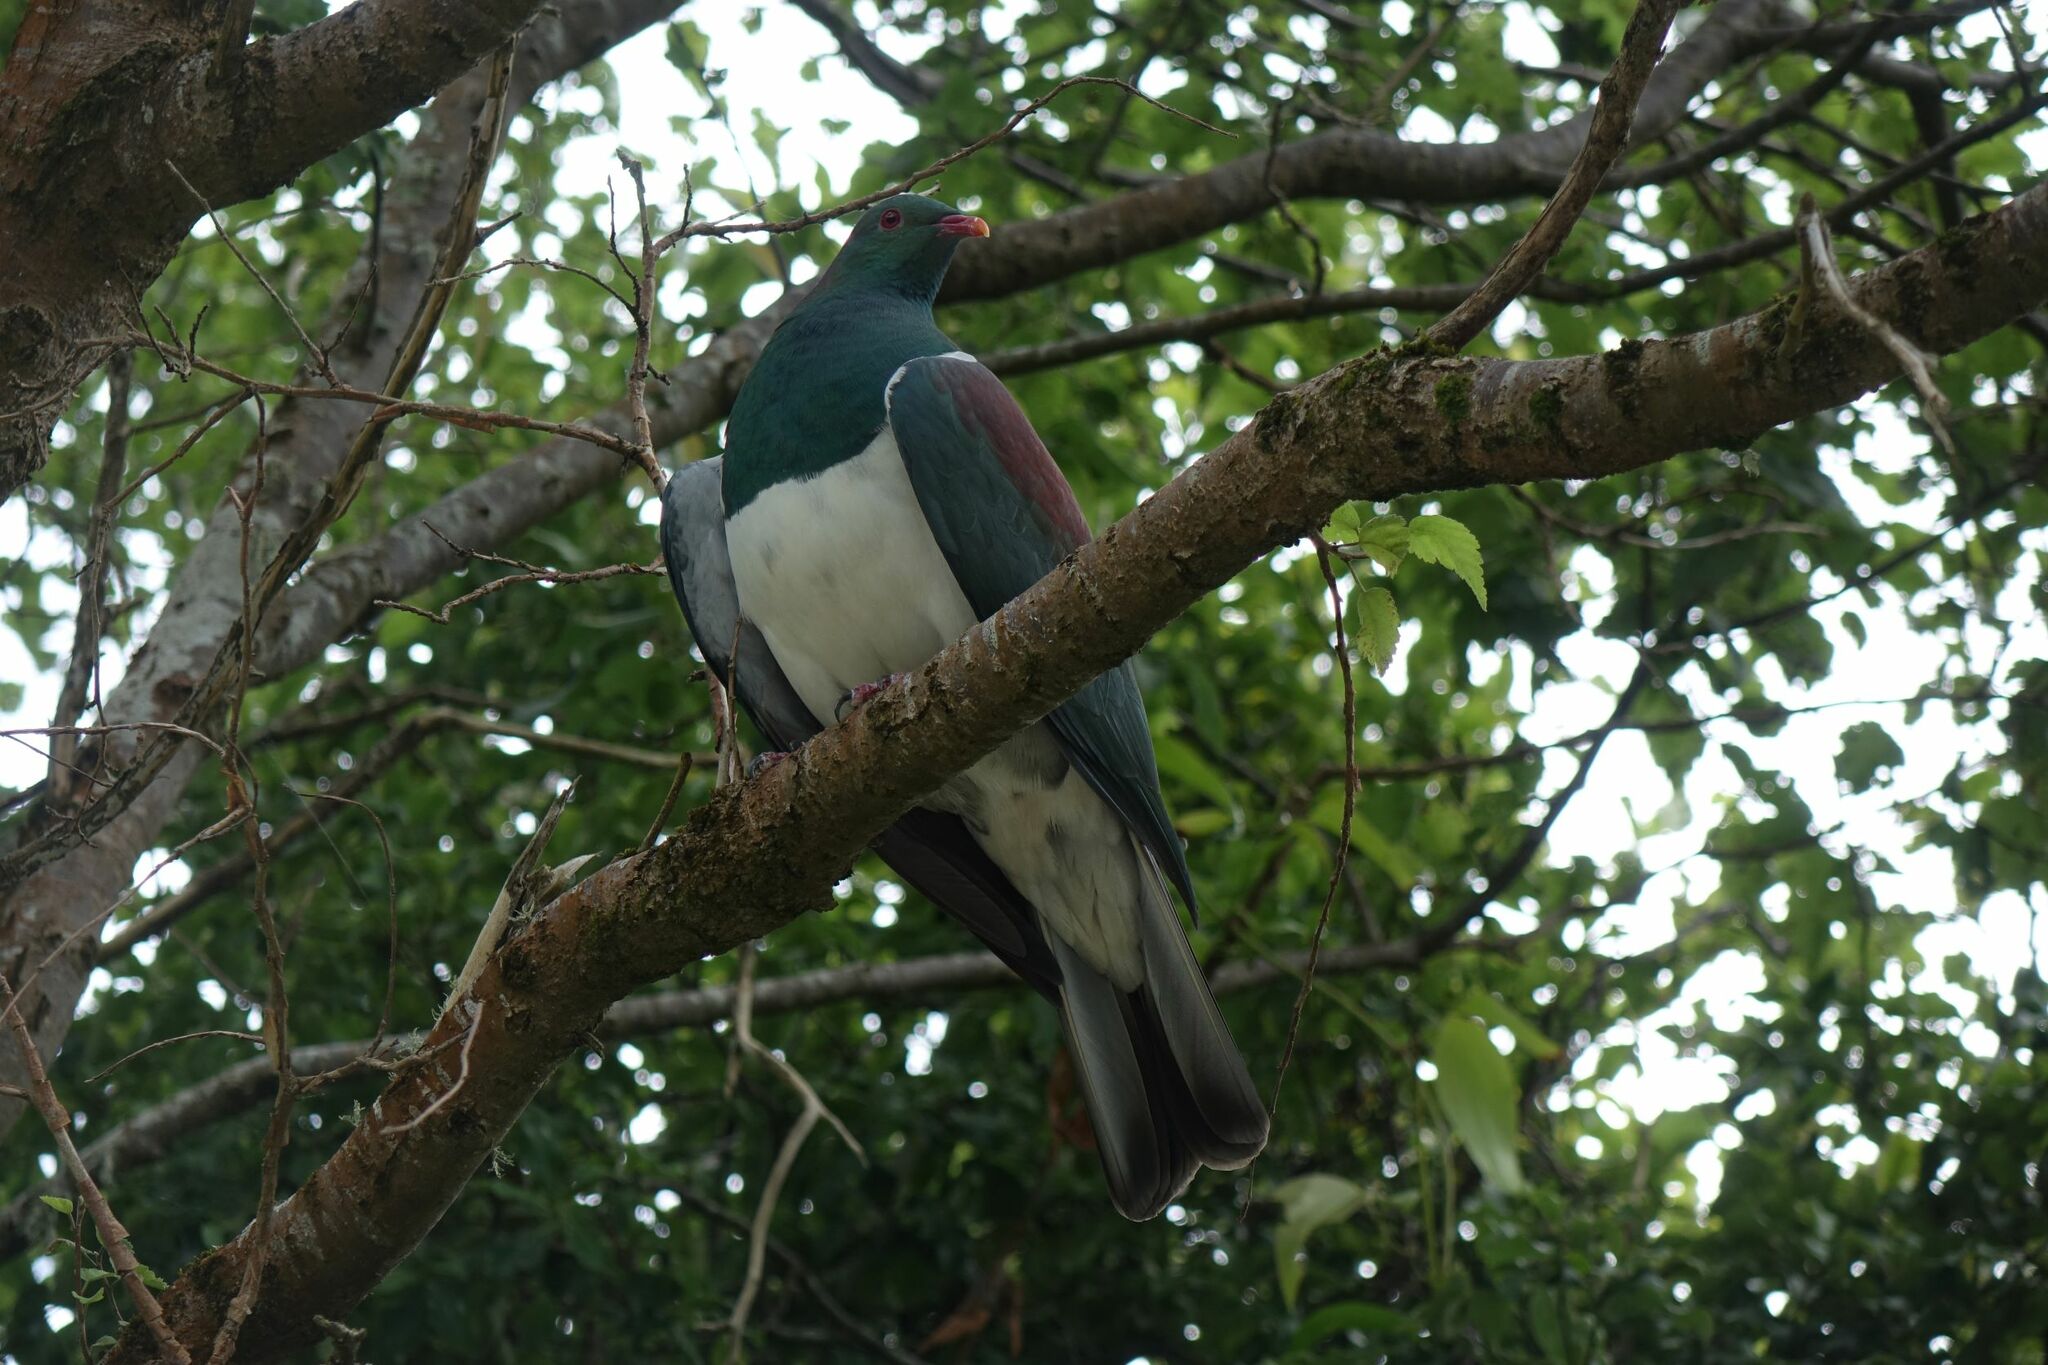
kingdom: Animalia
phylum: Chordata
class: Aves
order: Columbiformes
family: Columbidae
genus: Hemiphaga
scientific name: Hemiphaga novaeseelandiae
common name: New zealand pigeon
